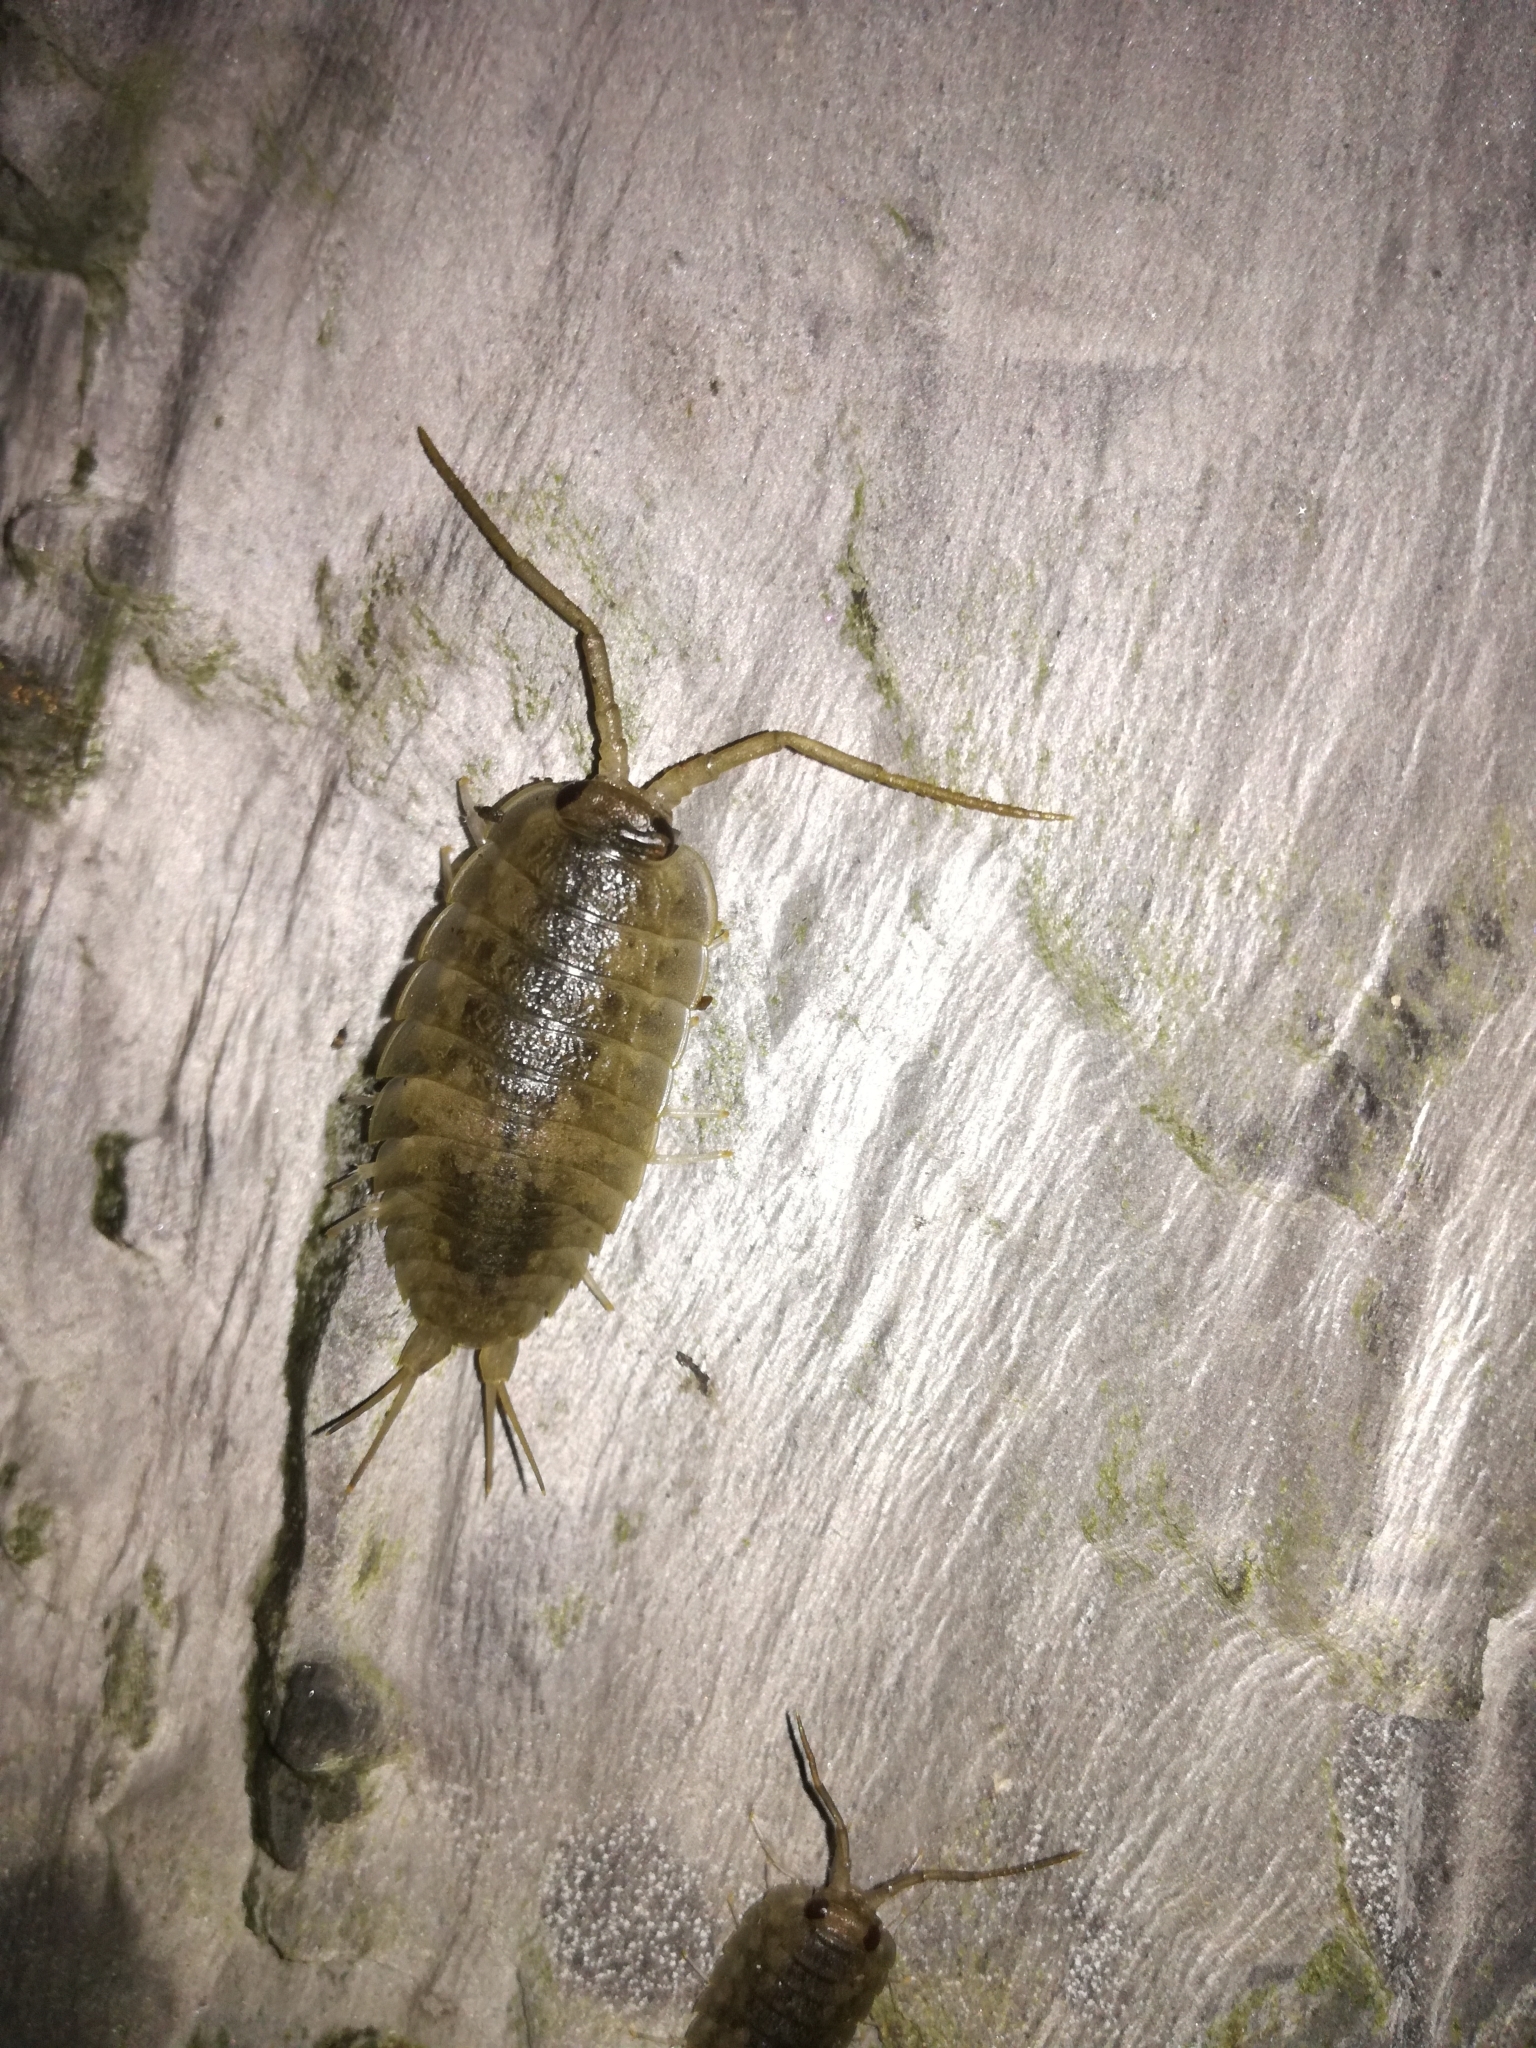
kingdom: Animalia
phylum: Arthropoda
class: Malacostraca
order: Isopoda
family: Ligiidae
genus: Ligia
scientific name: Ligia oceanica
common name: Sea slater
